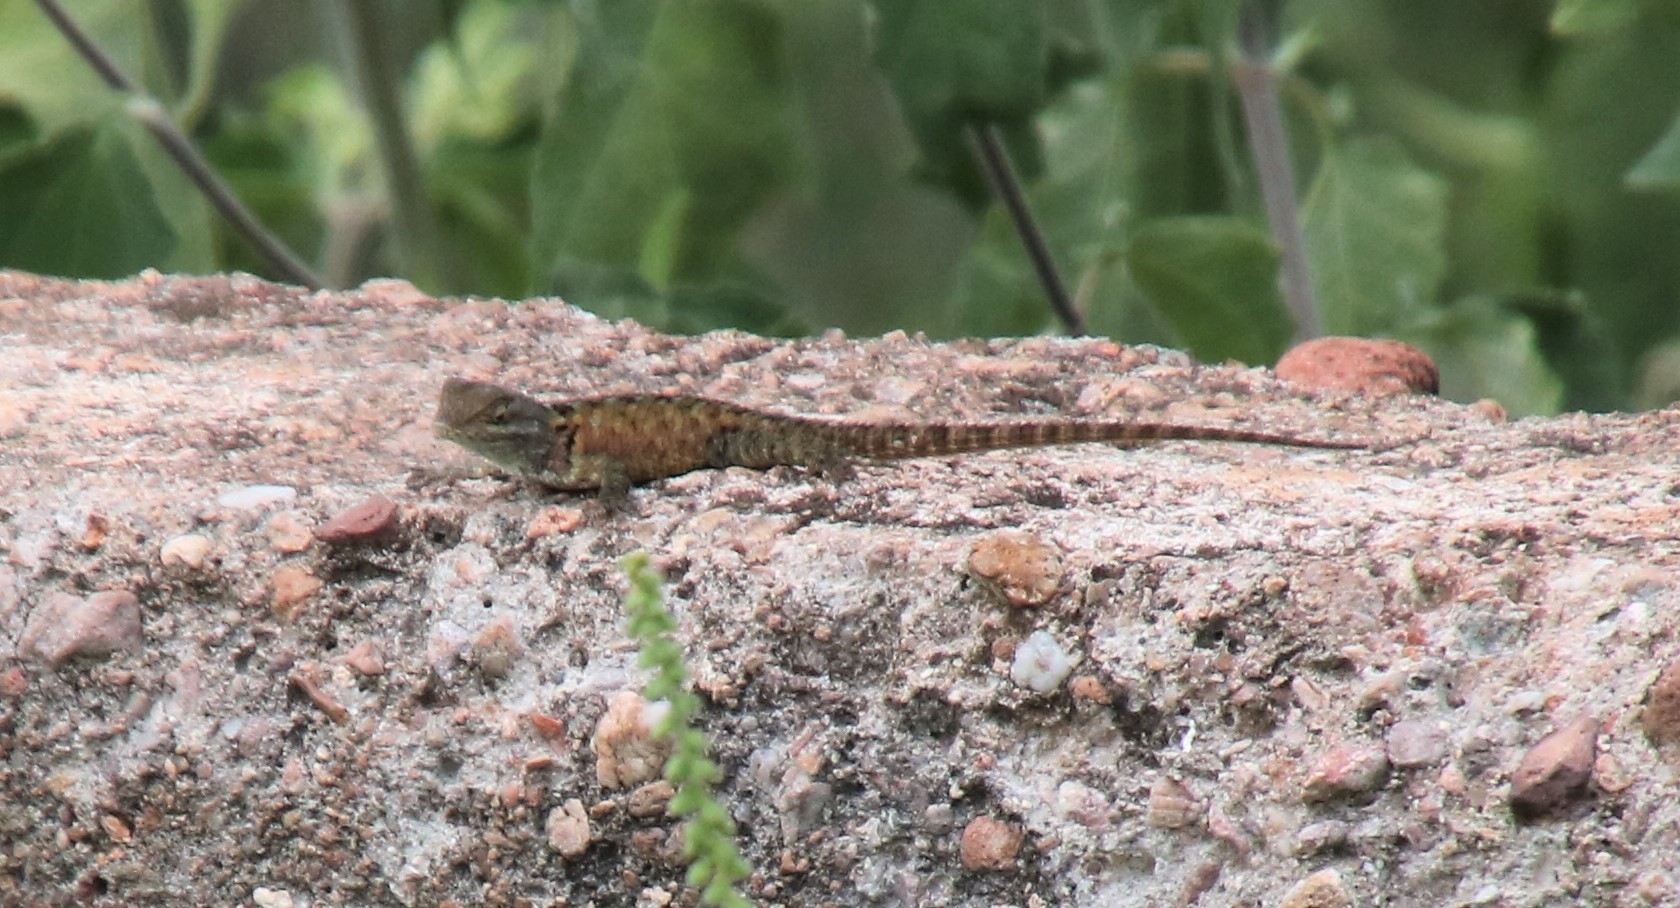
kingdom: Animalia
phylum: Chordata
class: Squamata
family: Phrynosomatidae
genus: Sceloporus
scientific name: Sceloporus torquatus
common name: Central plateau torquate lizard [melanogaster]
